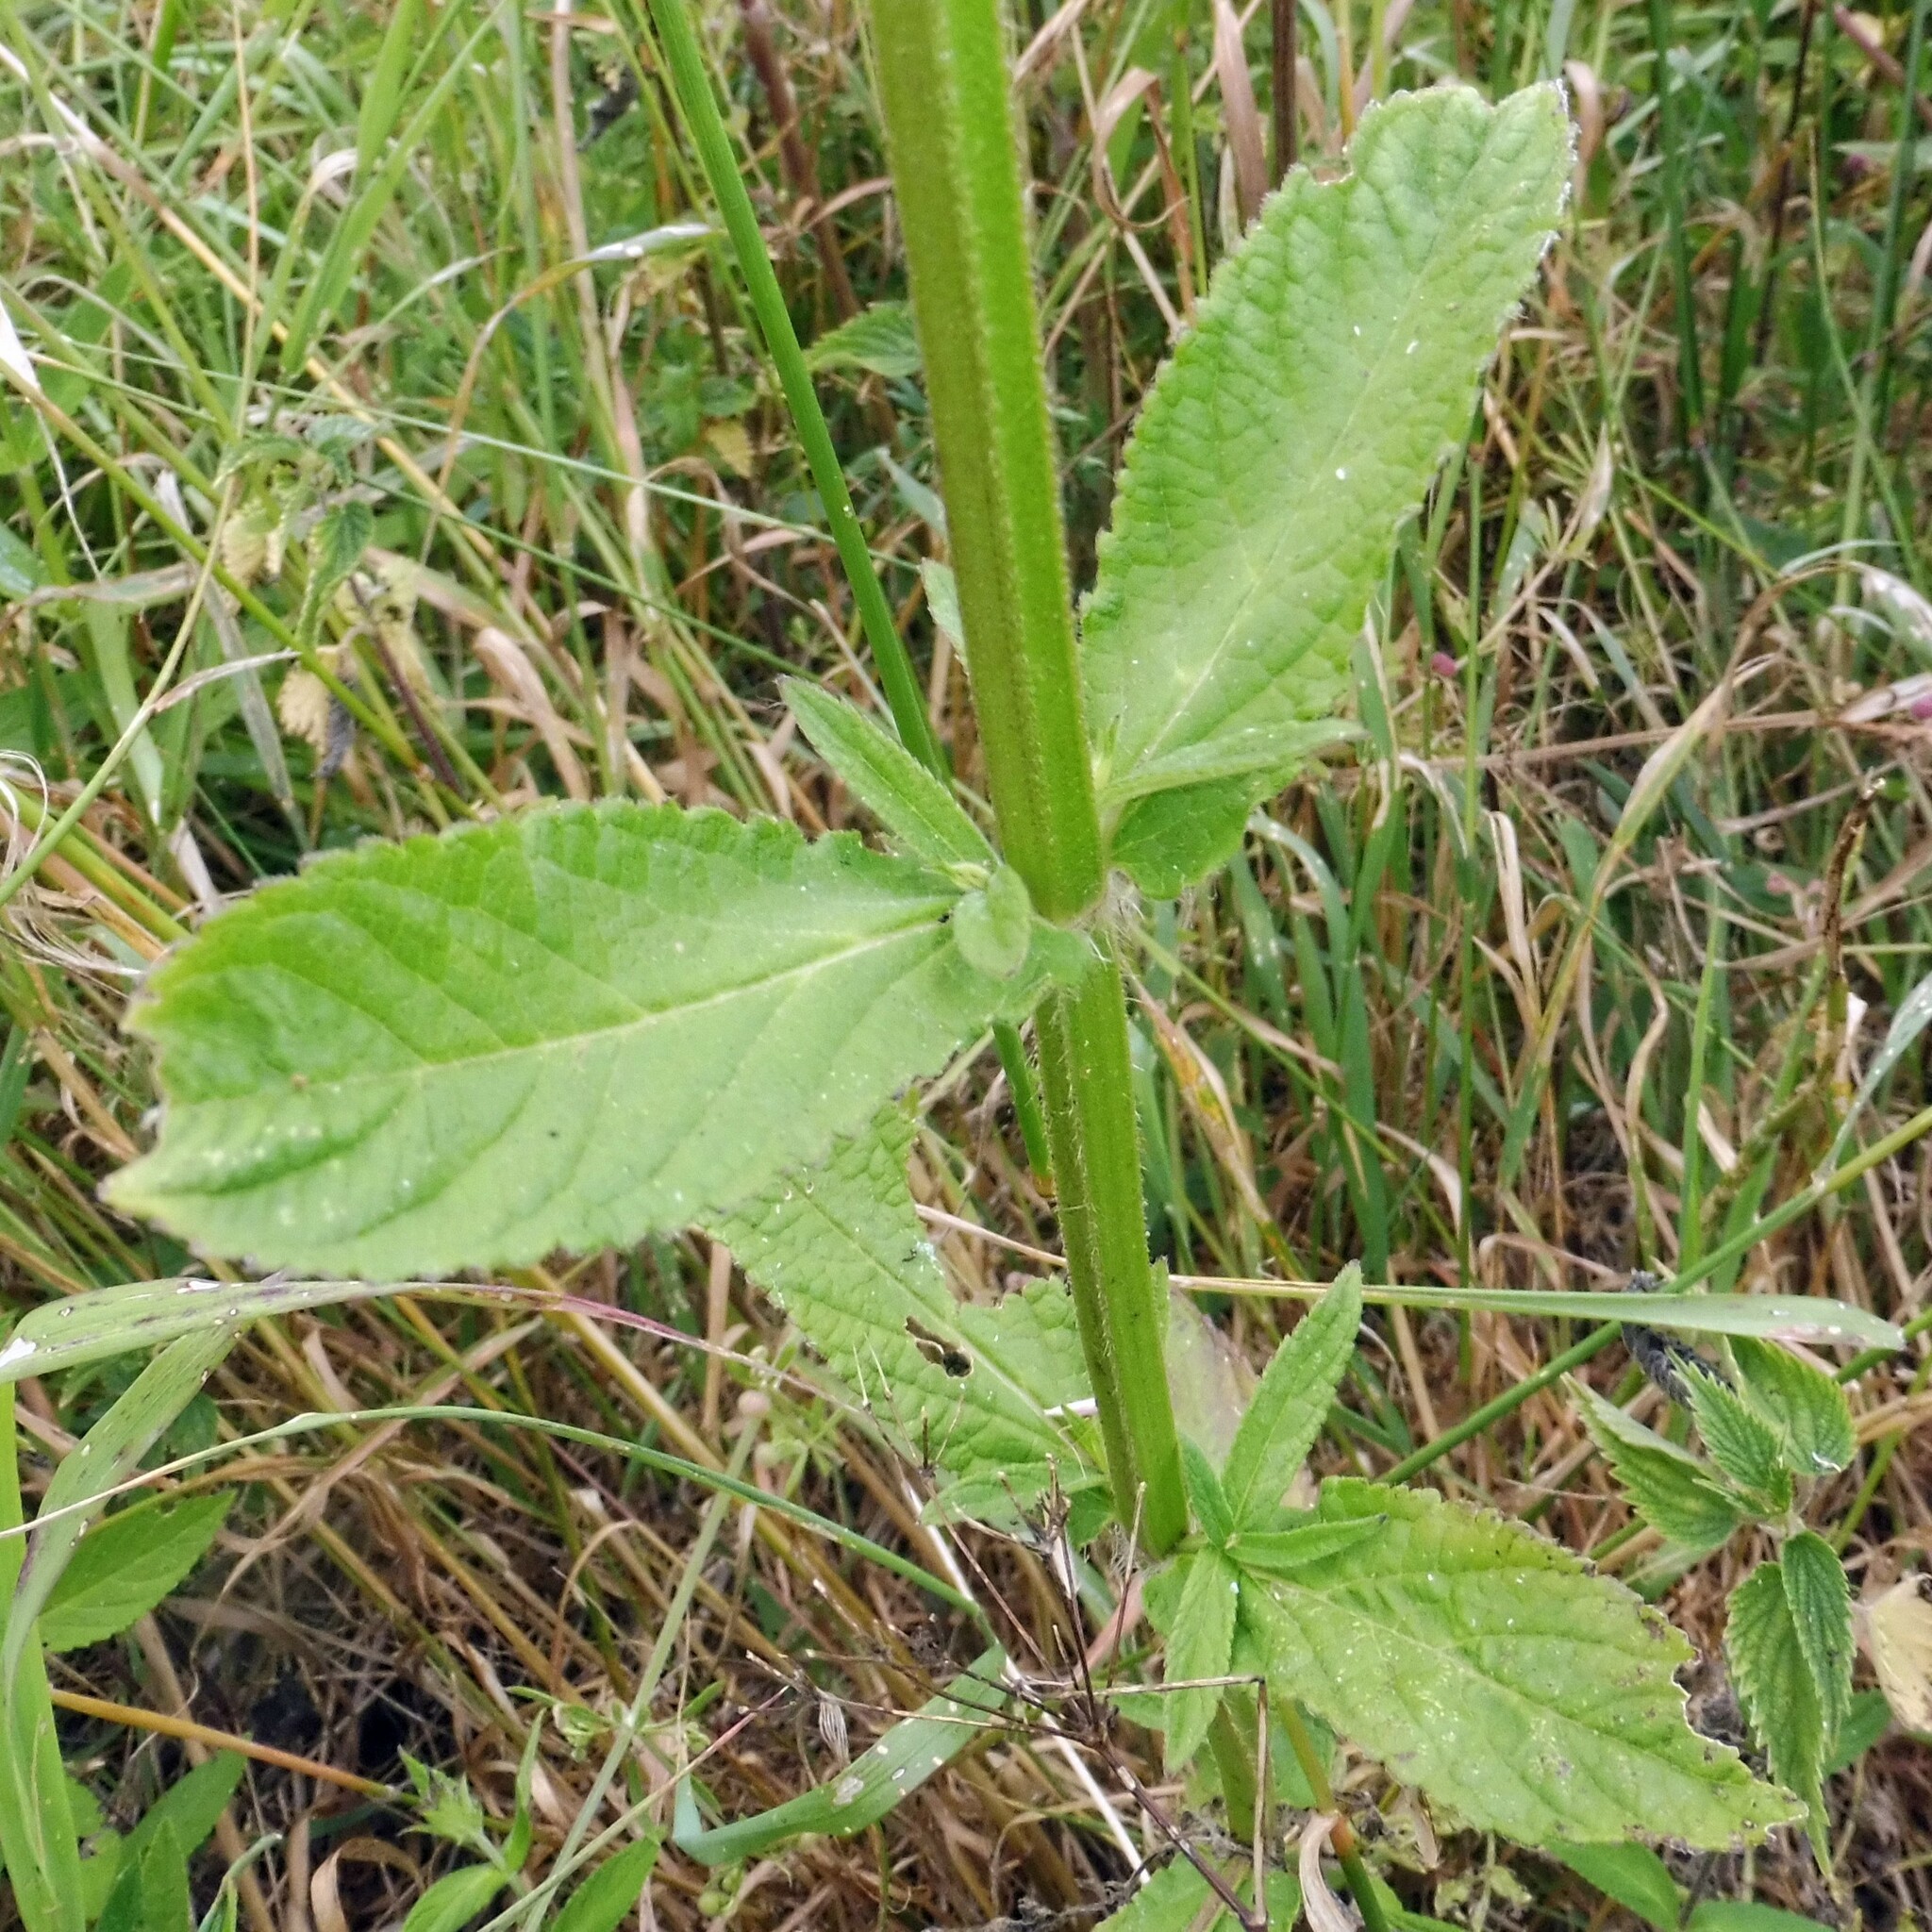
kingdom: Plantae
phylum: Tracheophyta
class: Magnoliopsida
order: Lamiales
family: Lamiaceae
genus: Stachys
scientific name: Stachys palustris
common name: Marsh woundwort
